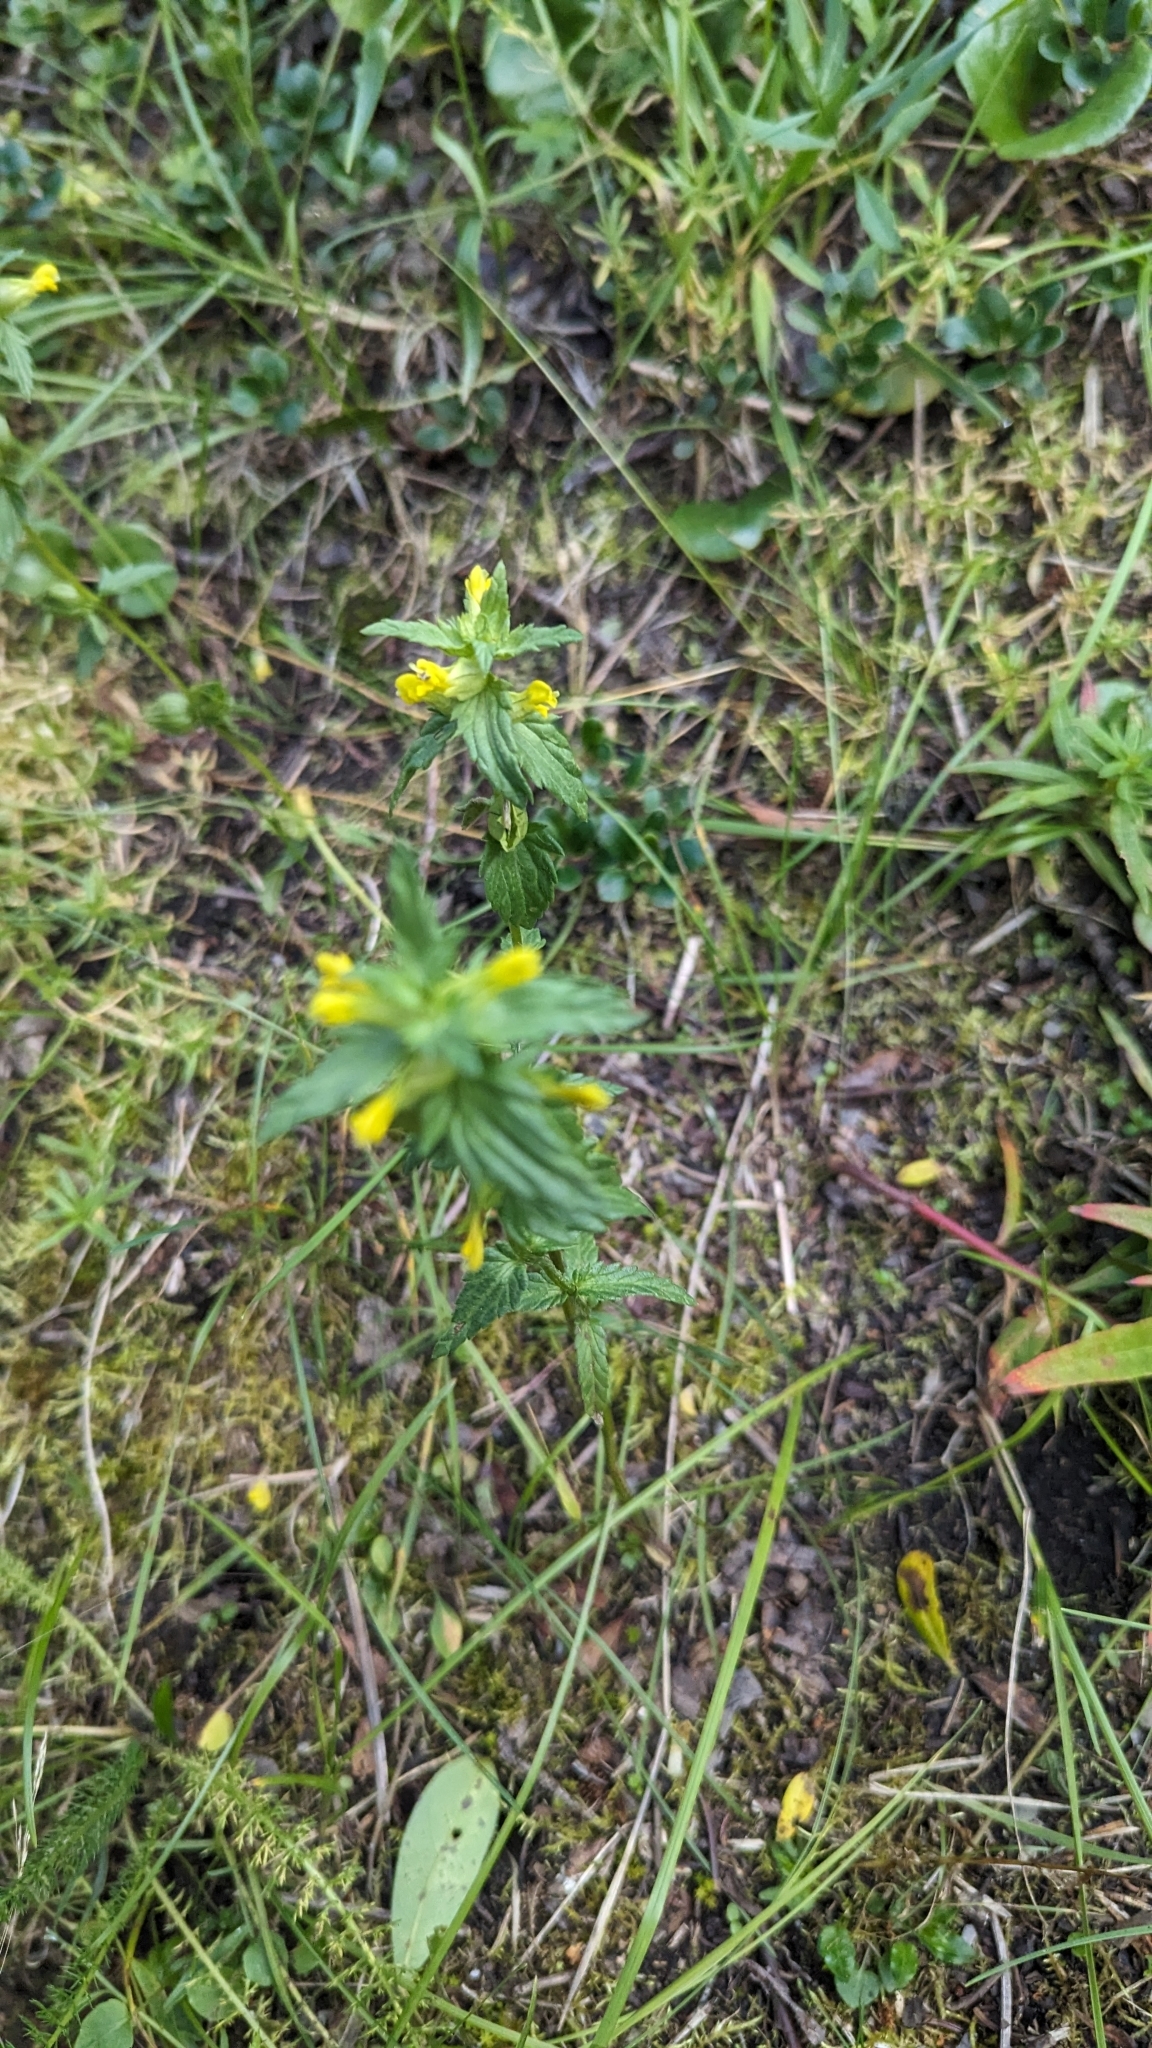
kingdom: Plantae
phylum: Tracheophyta
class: Magnoliopsida
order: Lamiales
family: Orobanchaceae
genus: Rhinanthus
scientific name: Rhinanthus groenlandicus
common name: Little yellow rattle
